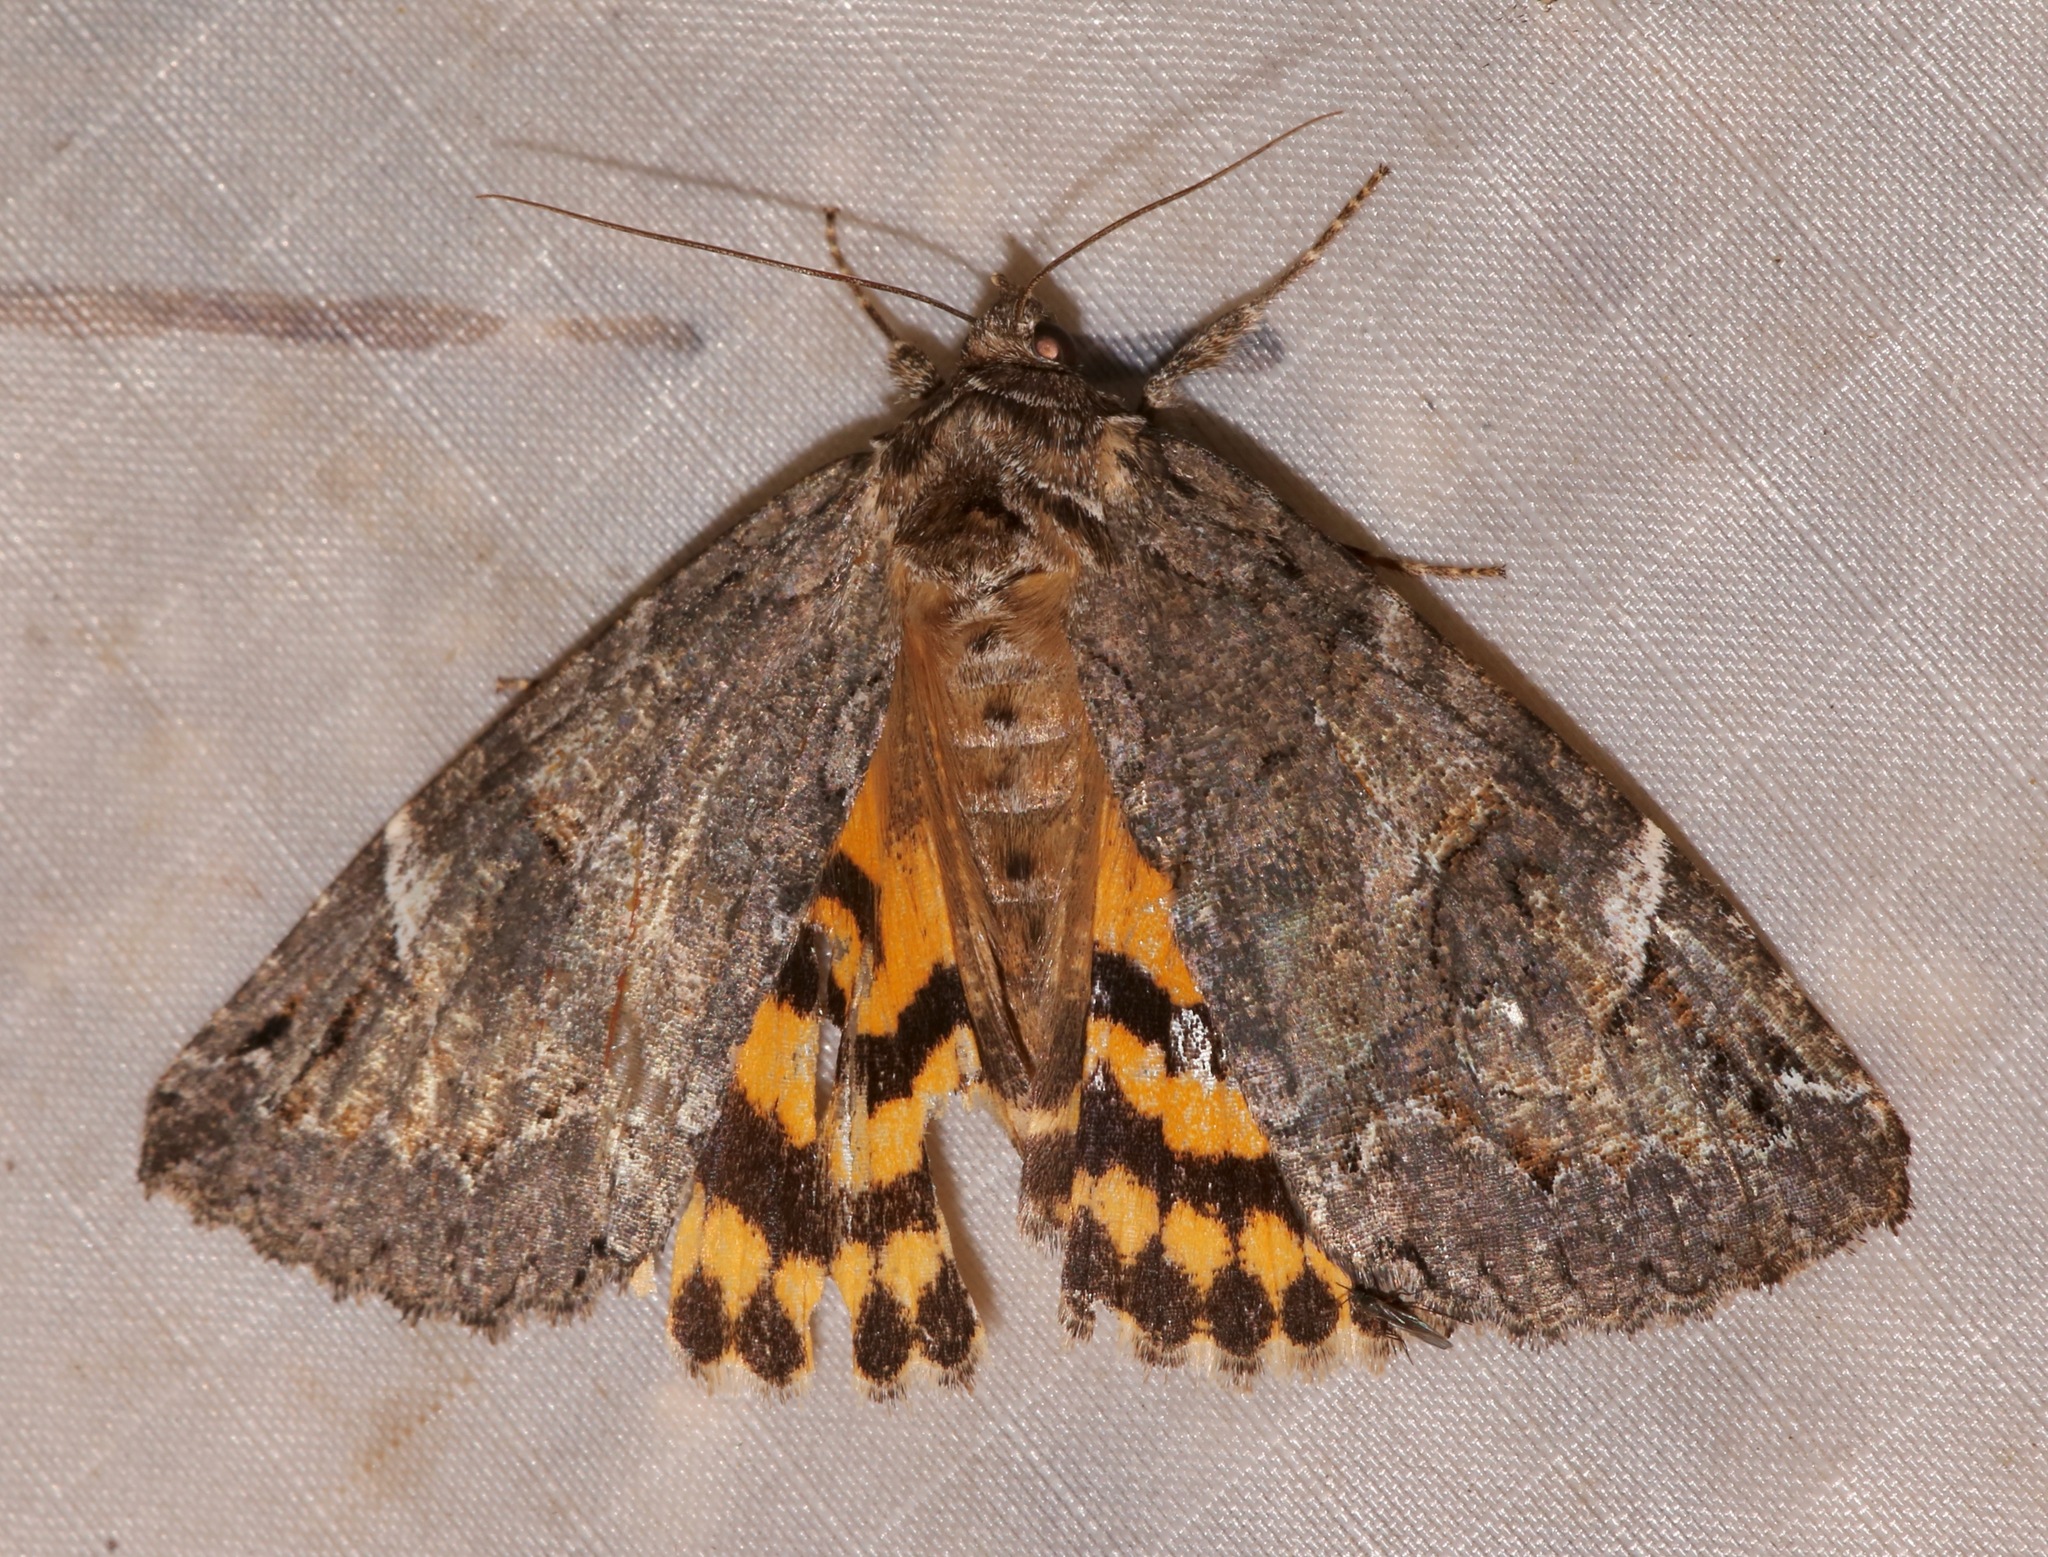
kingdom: Animalia
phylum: Arthropoda
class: Insecta
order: Lepidoptera
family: Erebidae
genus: Euparthenos
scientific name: Euparthenos nubilis
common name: Locust underwing
